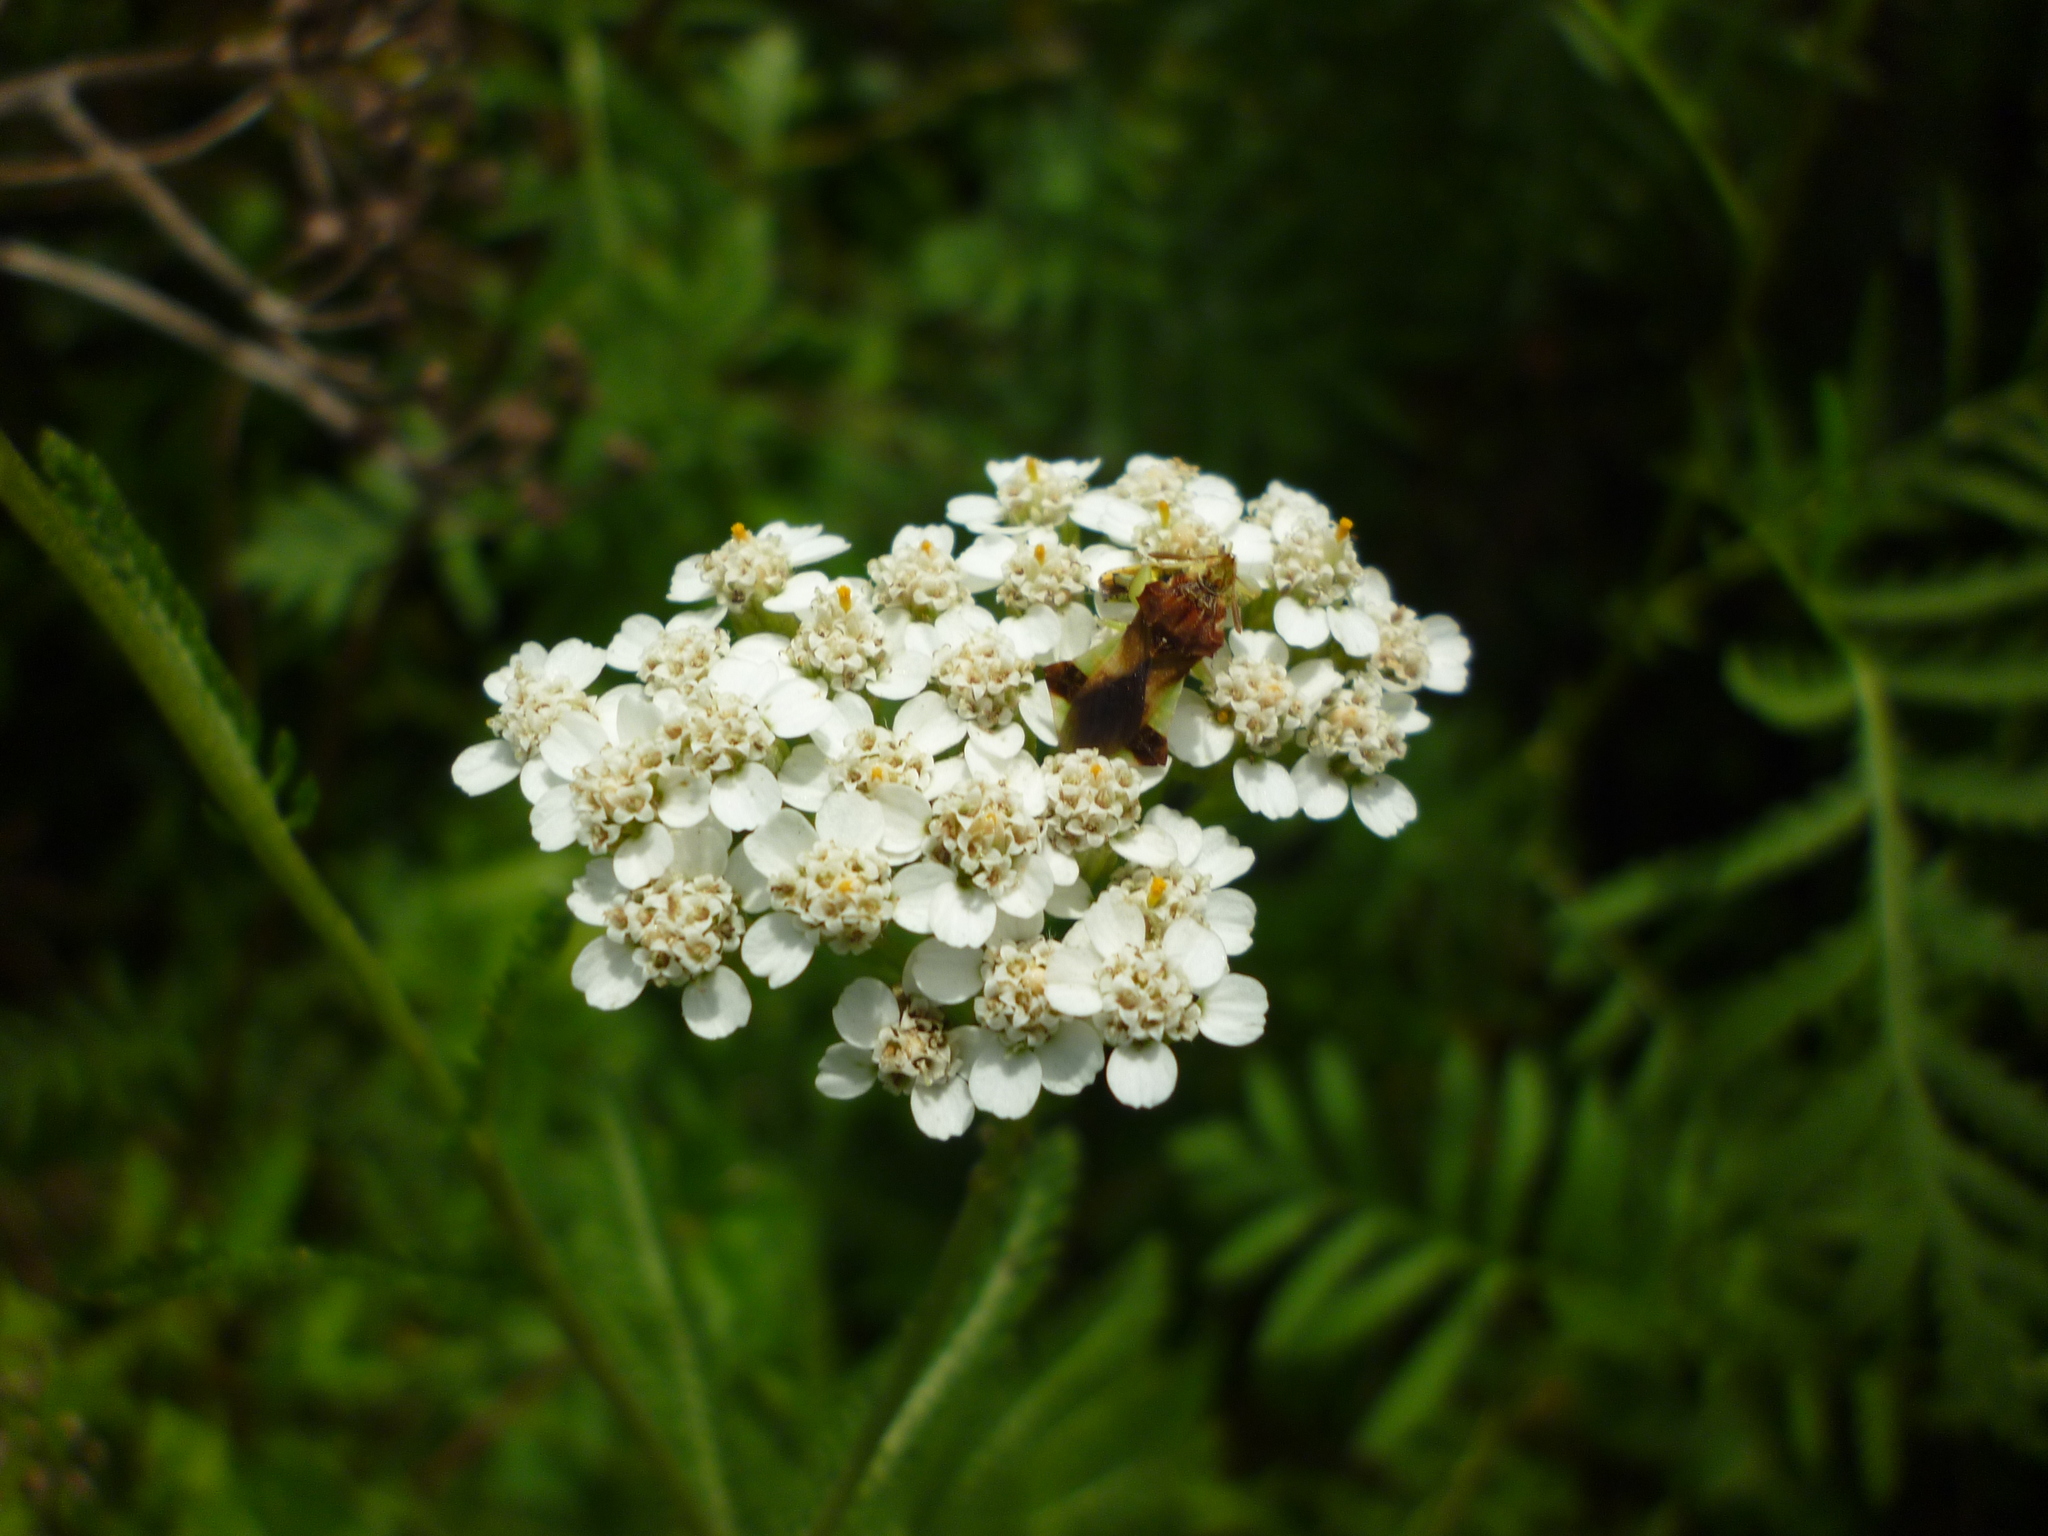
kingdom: Plantae
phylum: Tracheophyta
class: Magnoliopsida
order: Asterales
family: Asteraceae
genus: Achillea
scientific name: Achillea millefolium
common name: Yarrow
